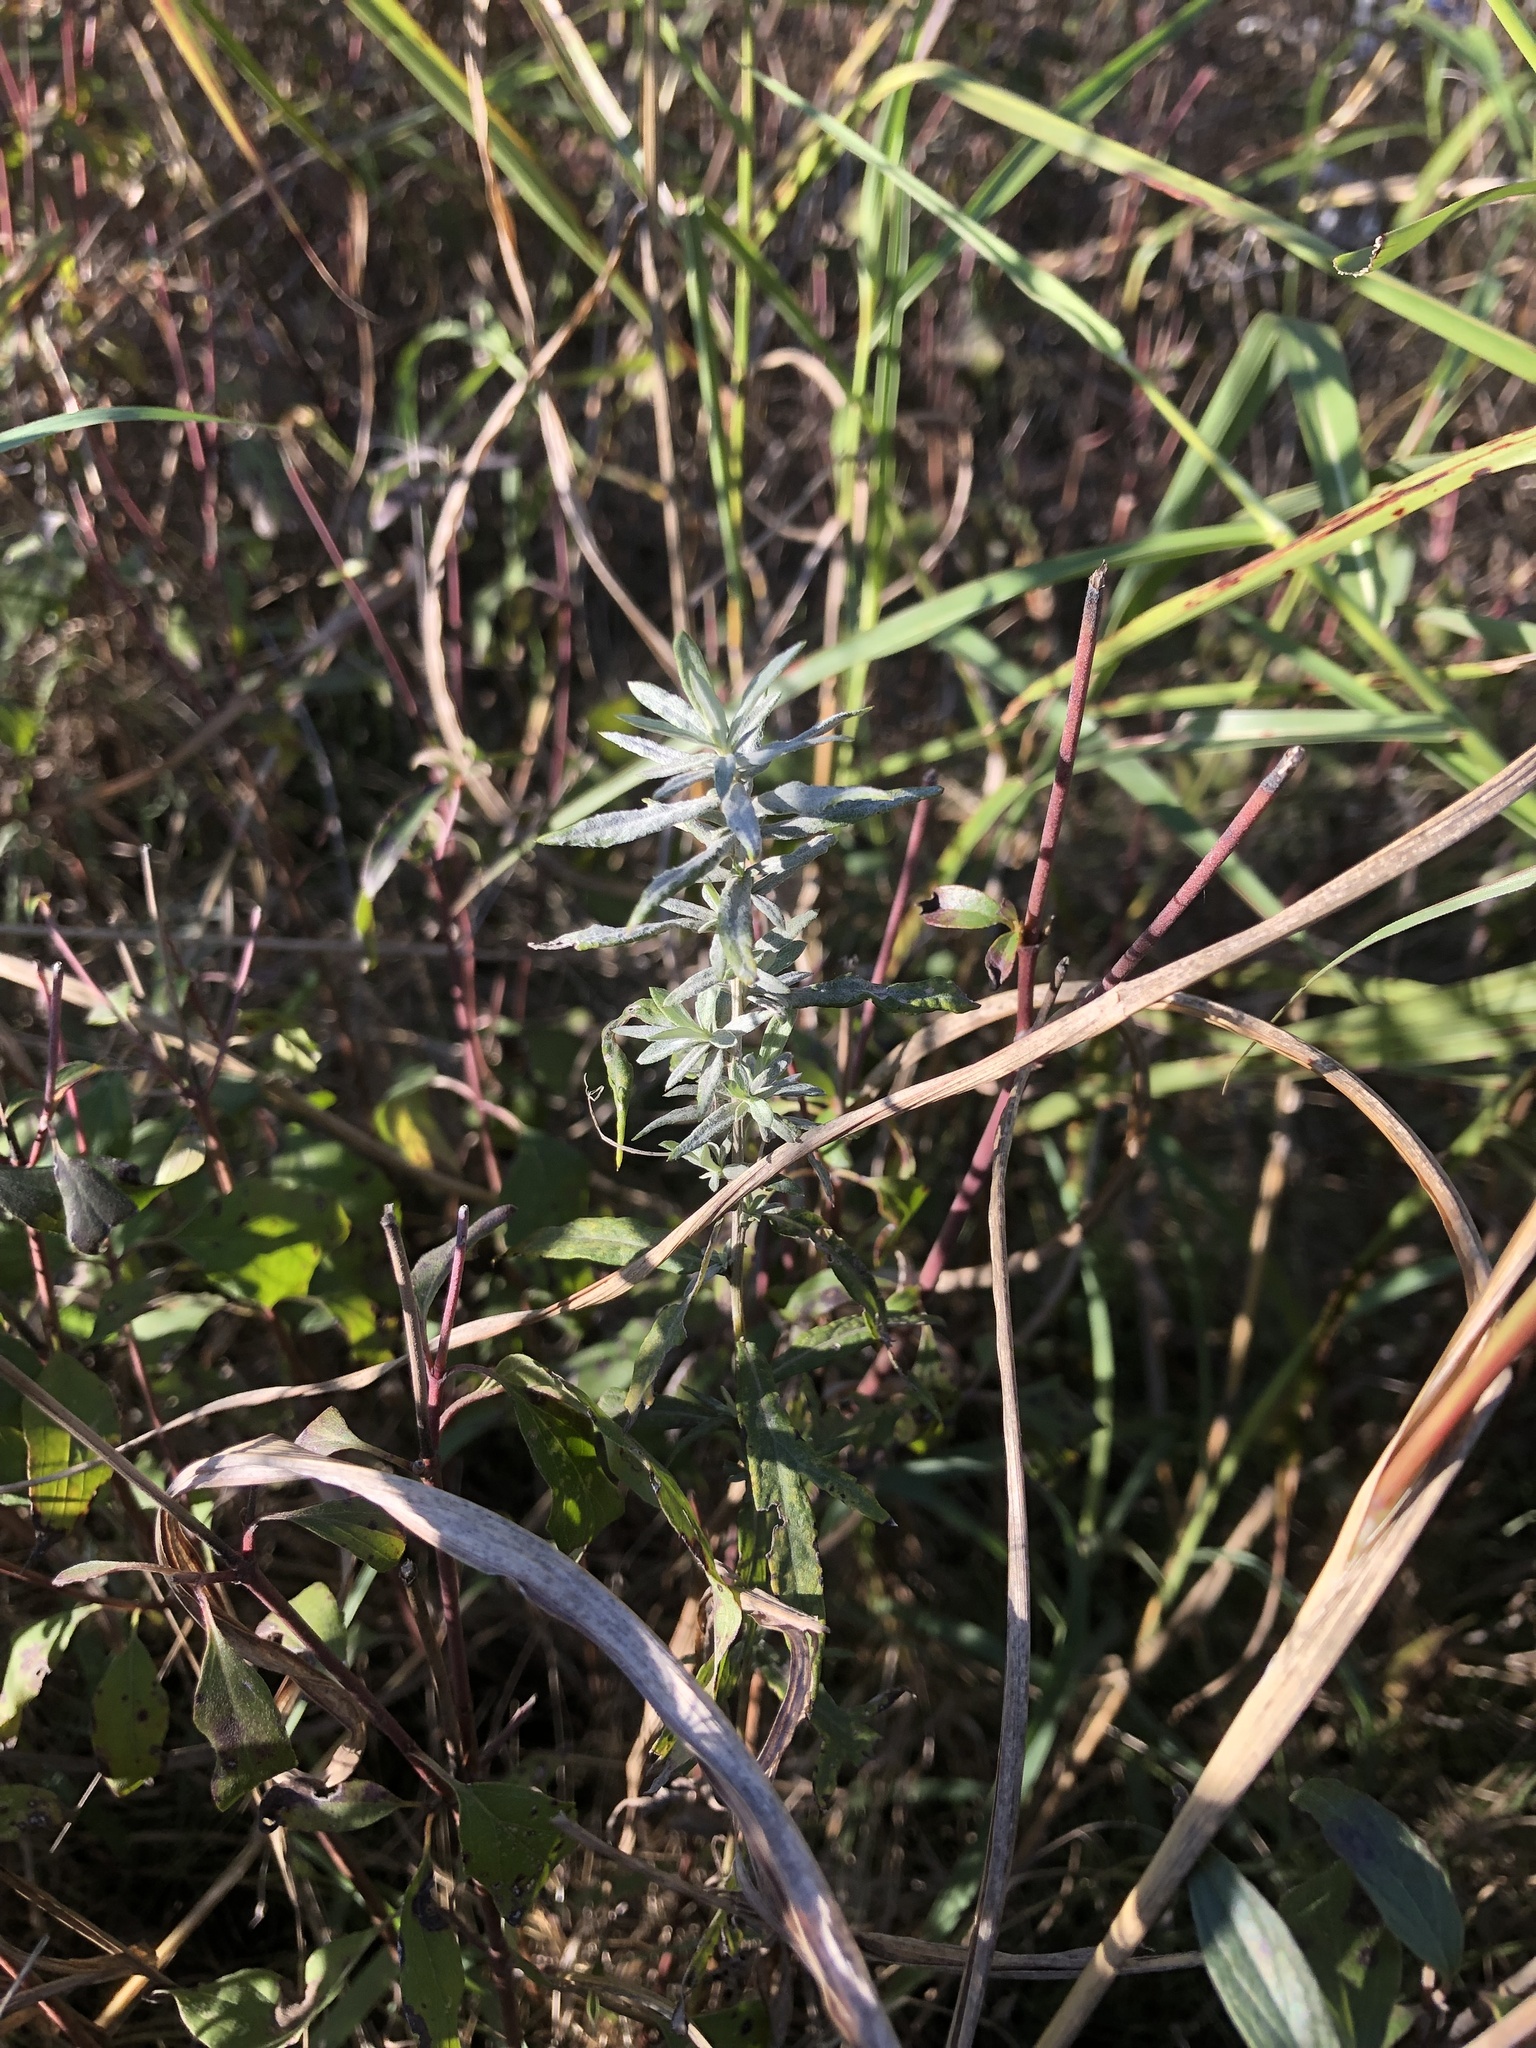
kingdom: Plantae
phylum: Tracheophyta
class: Magnoliopsida
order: Asterales
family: Asteraceae
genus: Artemisia
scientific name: Artemisia ludoviciana
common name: Western mugwort
